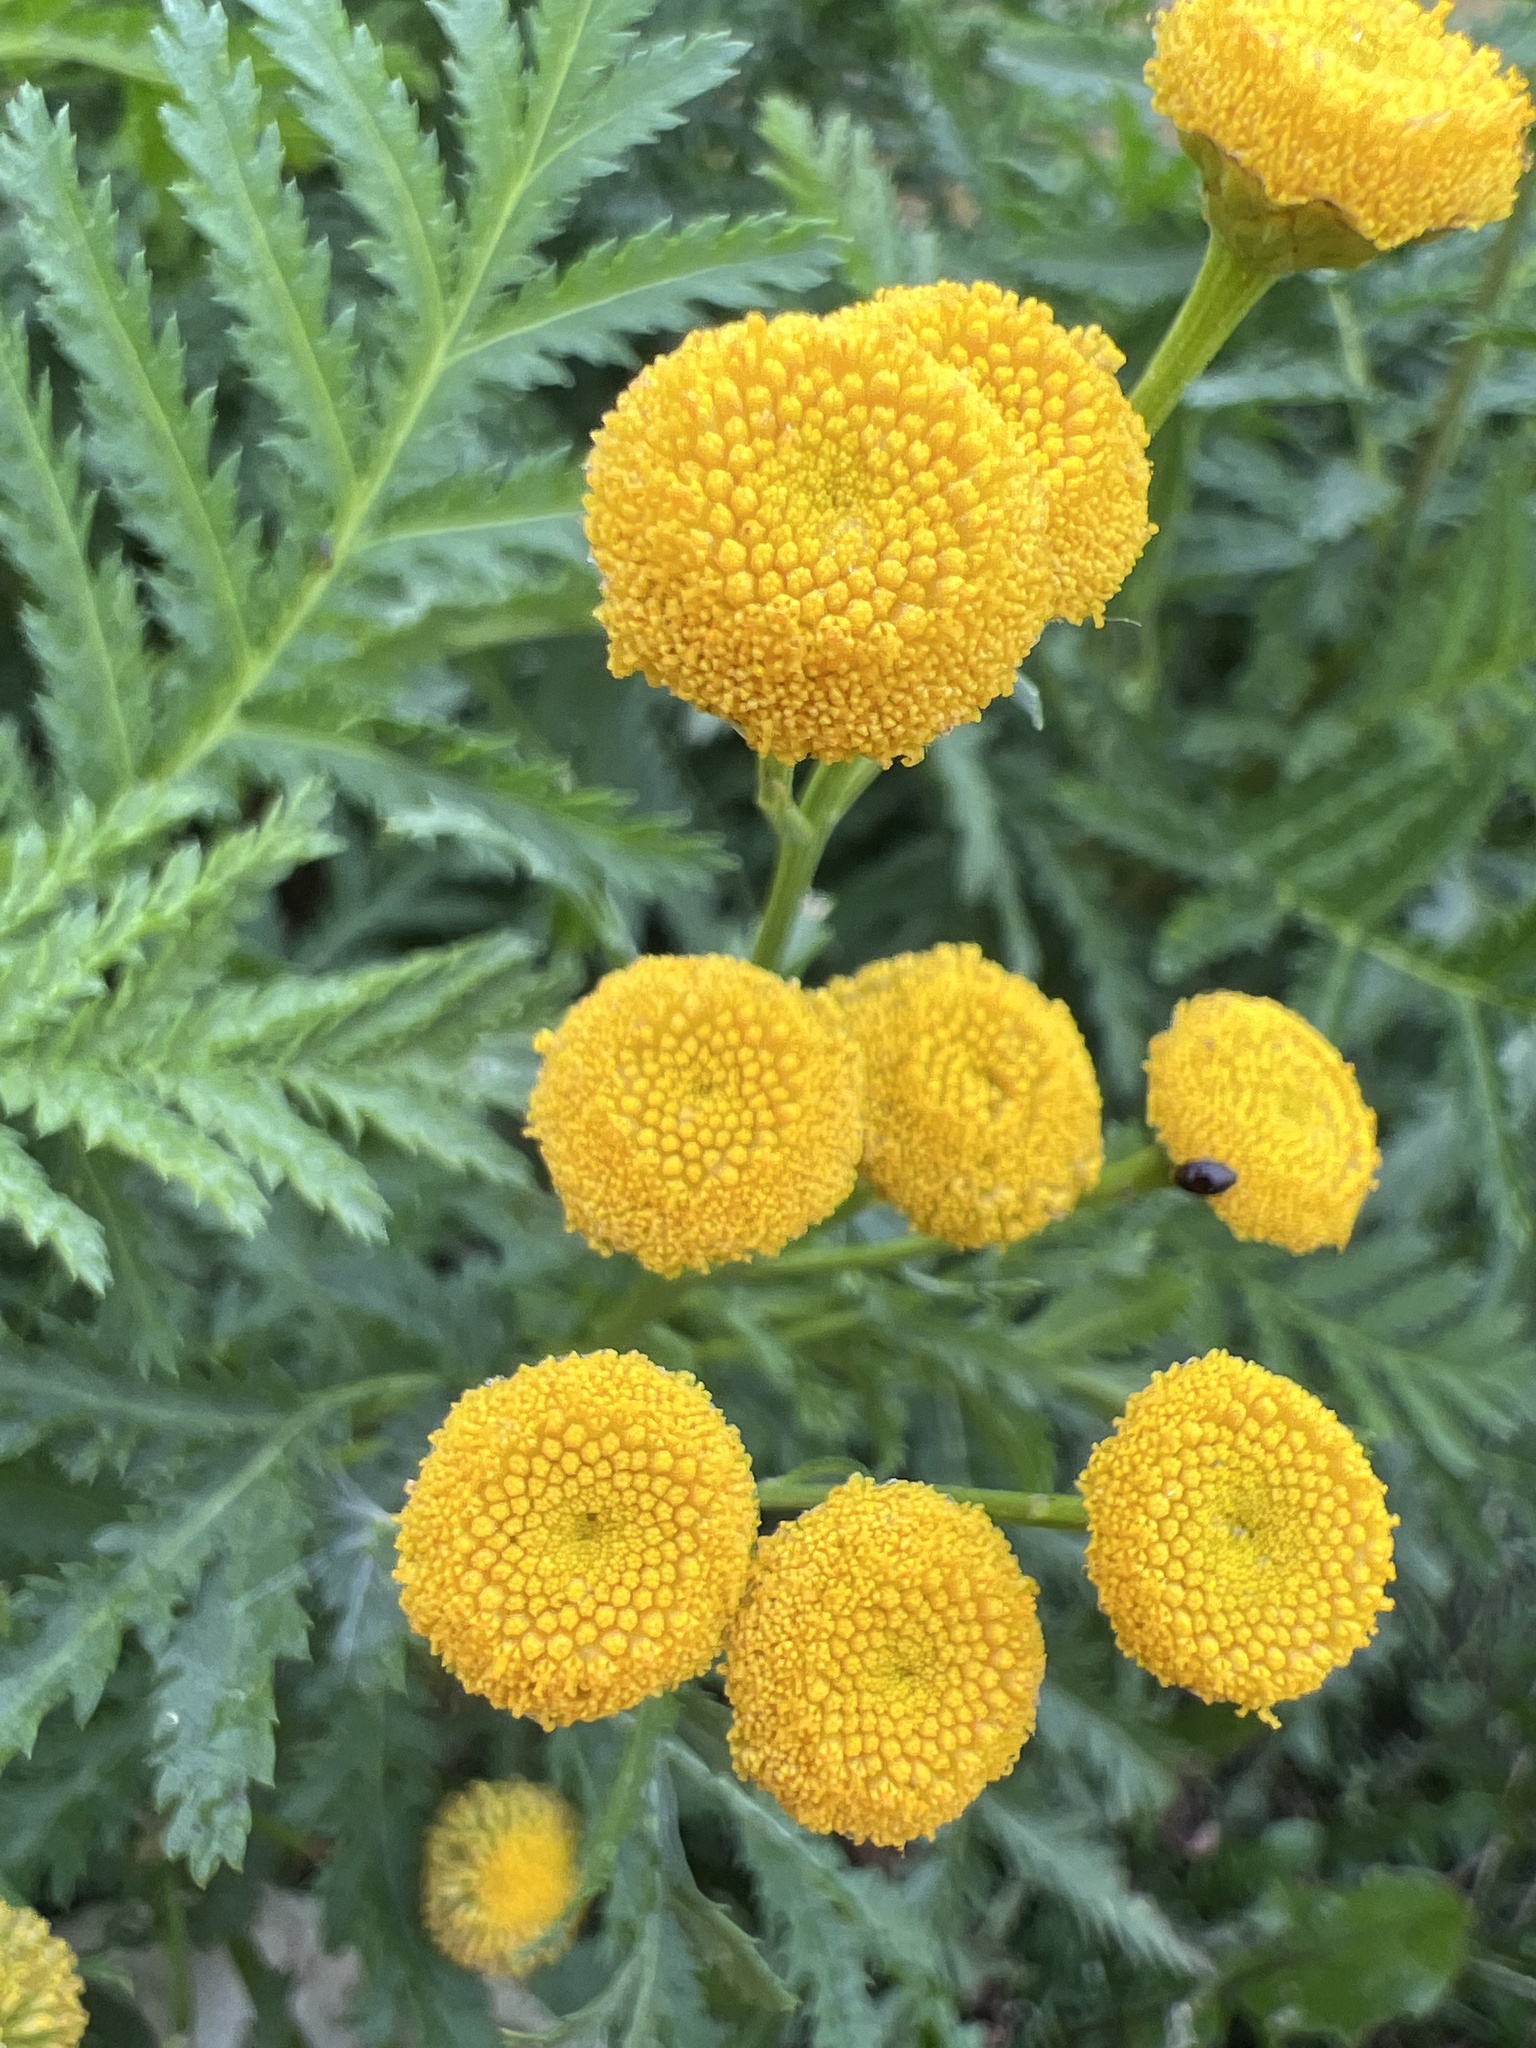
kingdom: Plantae
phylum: Tracheophyta
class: Magnoliopsida
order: Asterales
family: Asteraceae
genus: Tanacetum
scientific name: Tanacetum vulgare
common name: Common tansy
